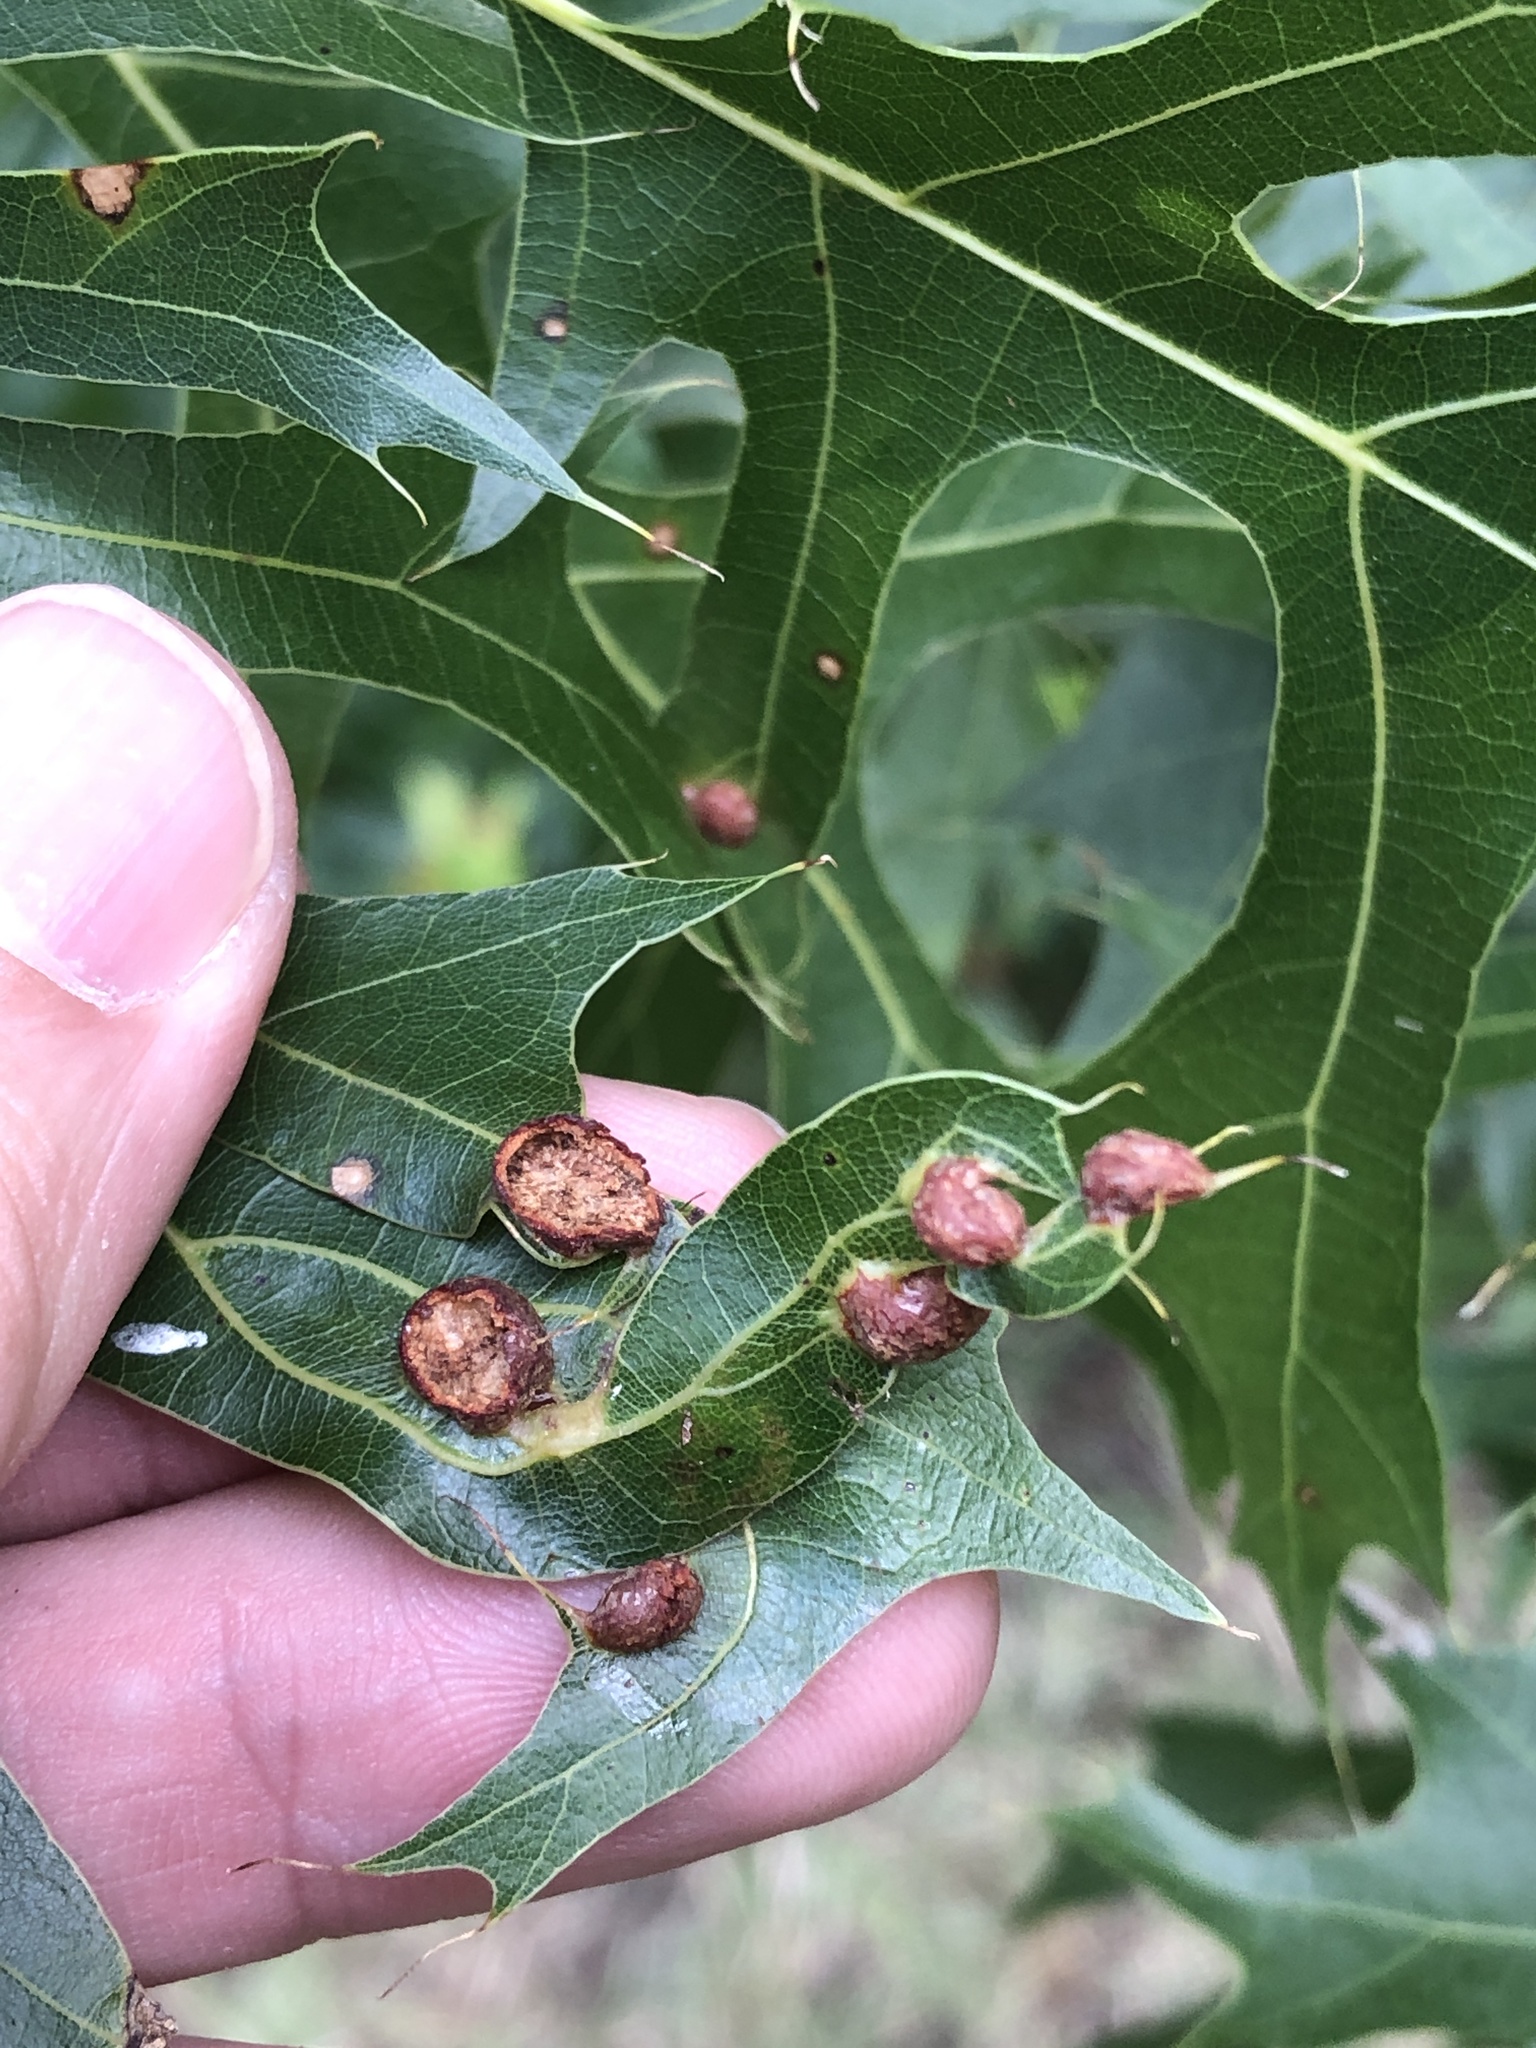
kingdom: Animalia
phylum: Arthropoda
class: Insecta
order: Diptera
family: Cecidomyiidae
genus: Polystepha
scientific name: Polystepha pilulae
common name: Oak leaf gall midge
